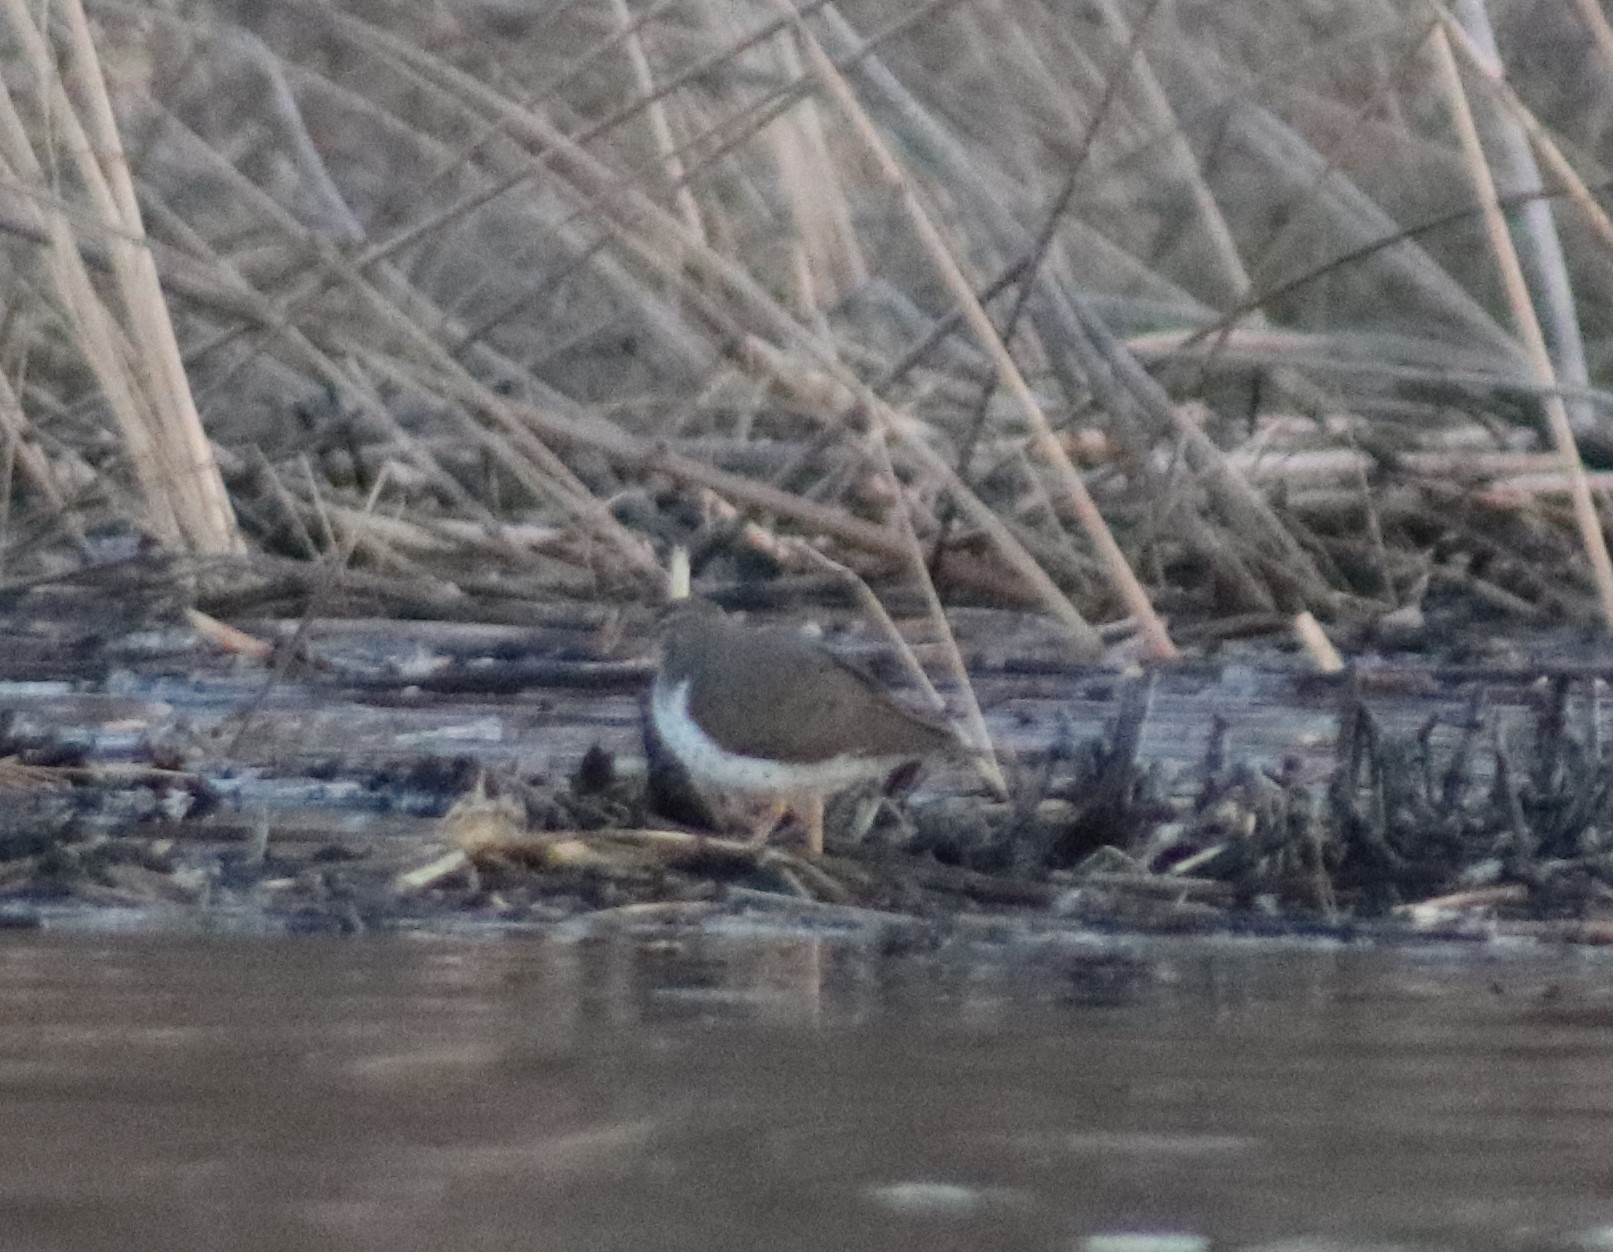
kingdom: Animalia
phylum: Chordata
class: Aves
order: Charadriiformes
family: Scolopacidae
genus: Actitis
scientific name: Actitis macularius
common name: Spotted sandpiper
